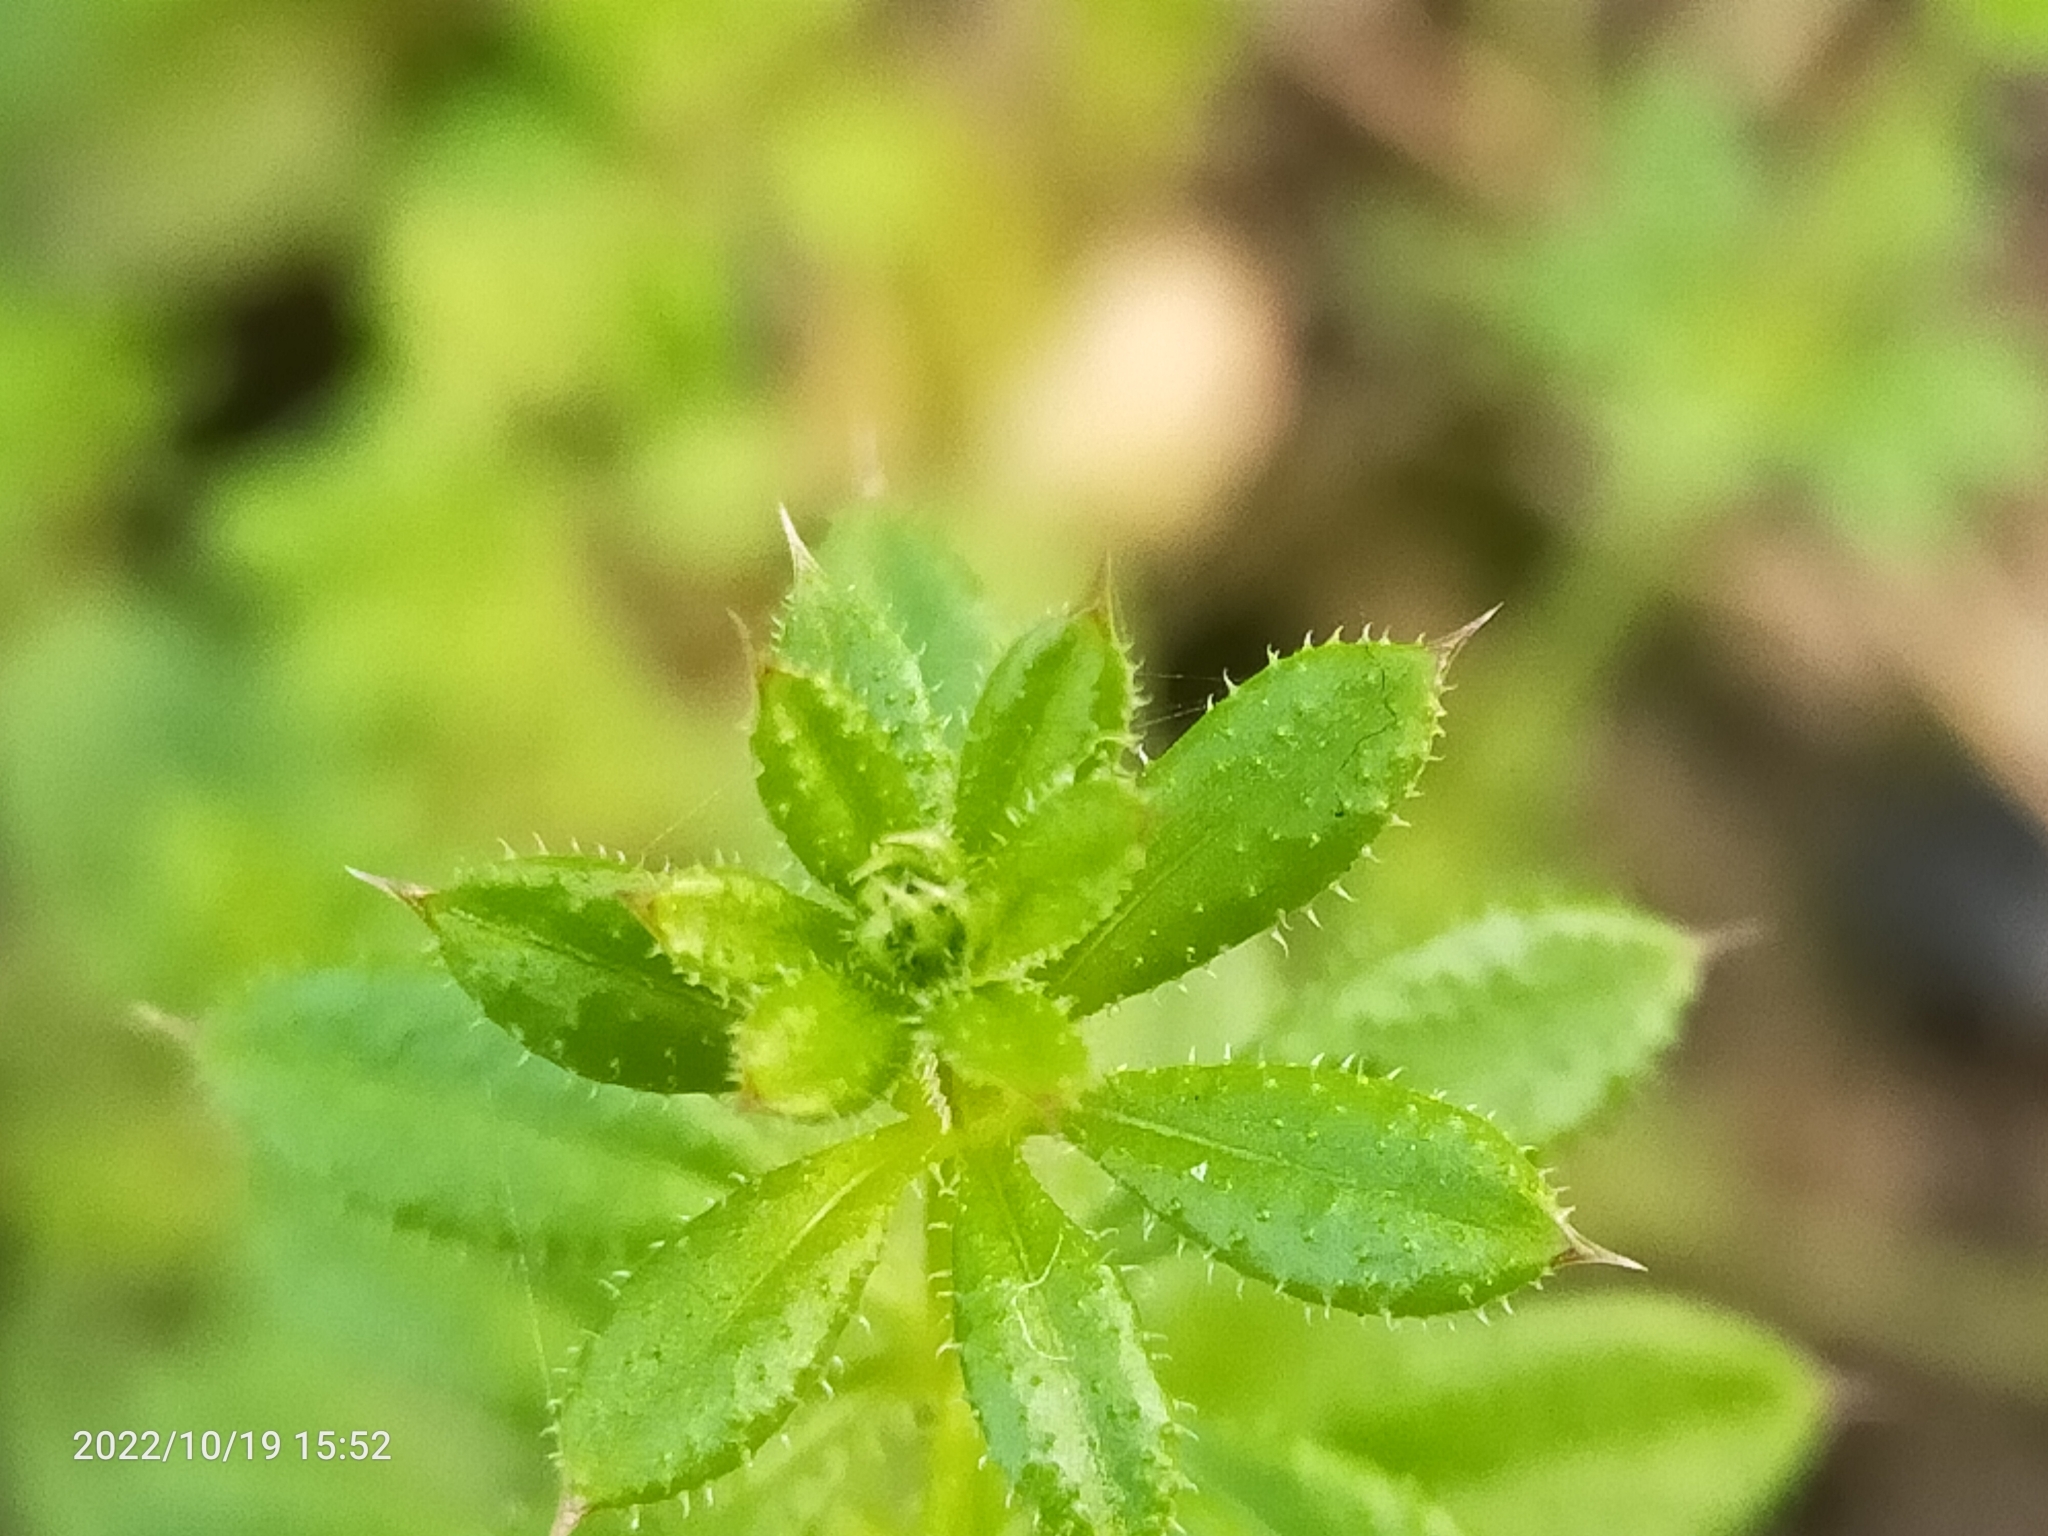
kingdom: Plantae
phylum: Tracheophyta
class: Magnoliopsida
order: Gentianales
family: Rubiaceae
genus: Galium
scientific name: Galium aparine
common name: Cleavers
